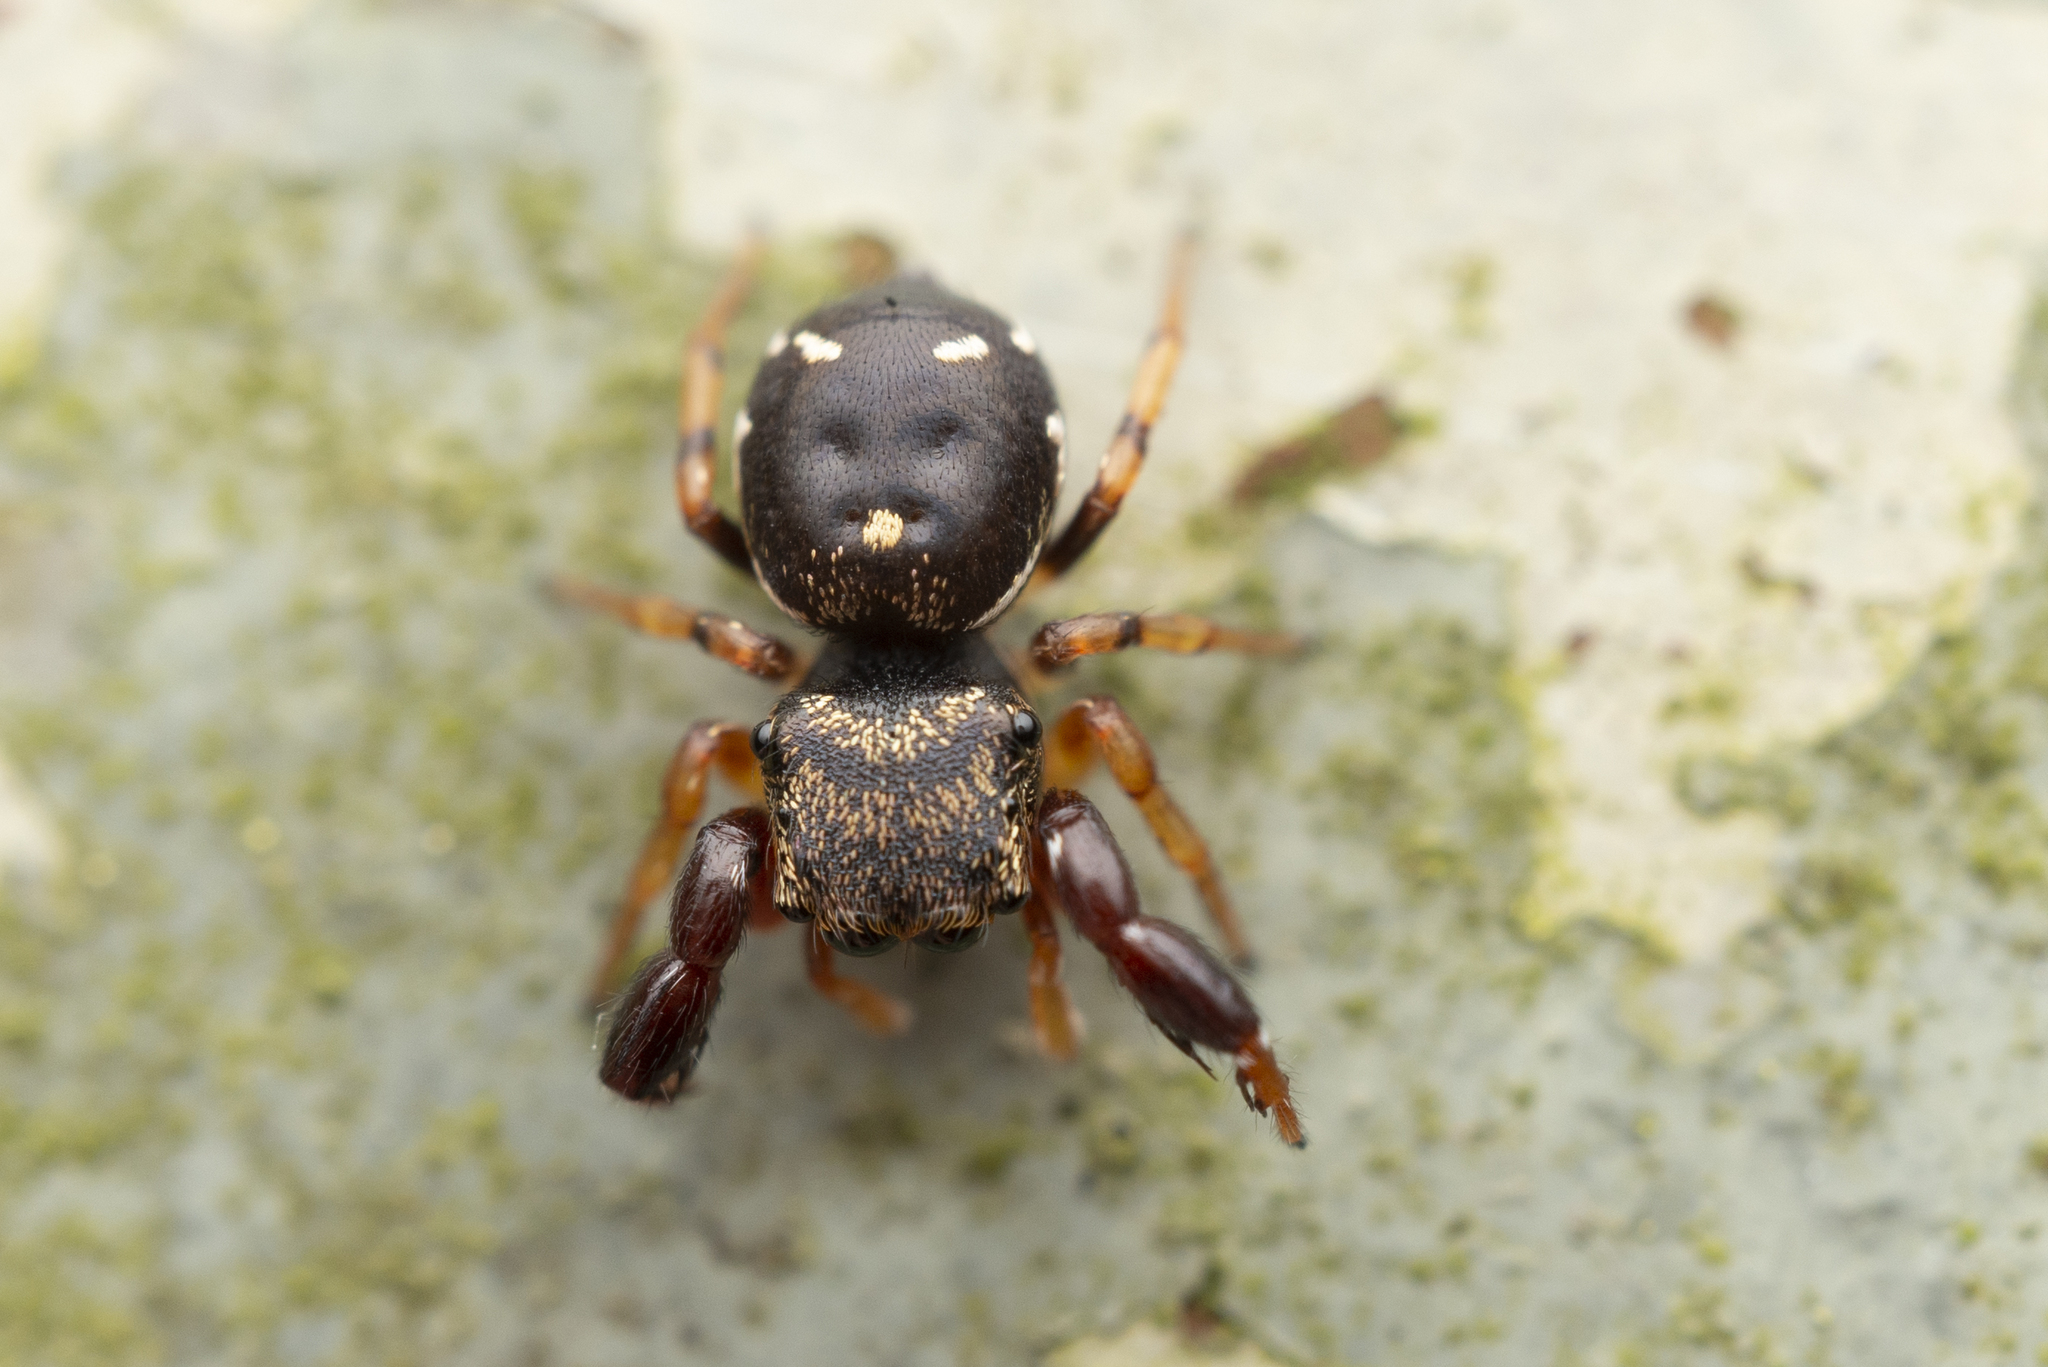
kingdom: Animalia
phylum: Arthropoda
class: Arachnida
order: Araneae
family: Salticidae
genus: Harmochirus
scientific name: Harmochirus insulanus
